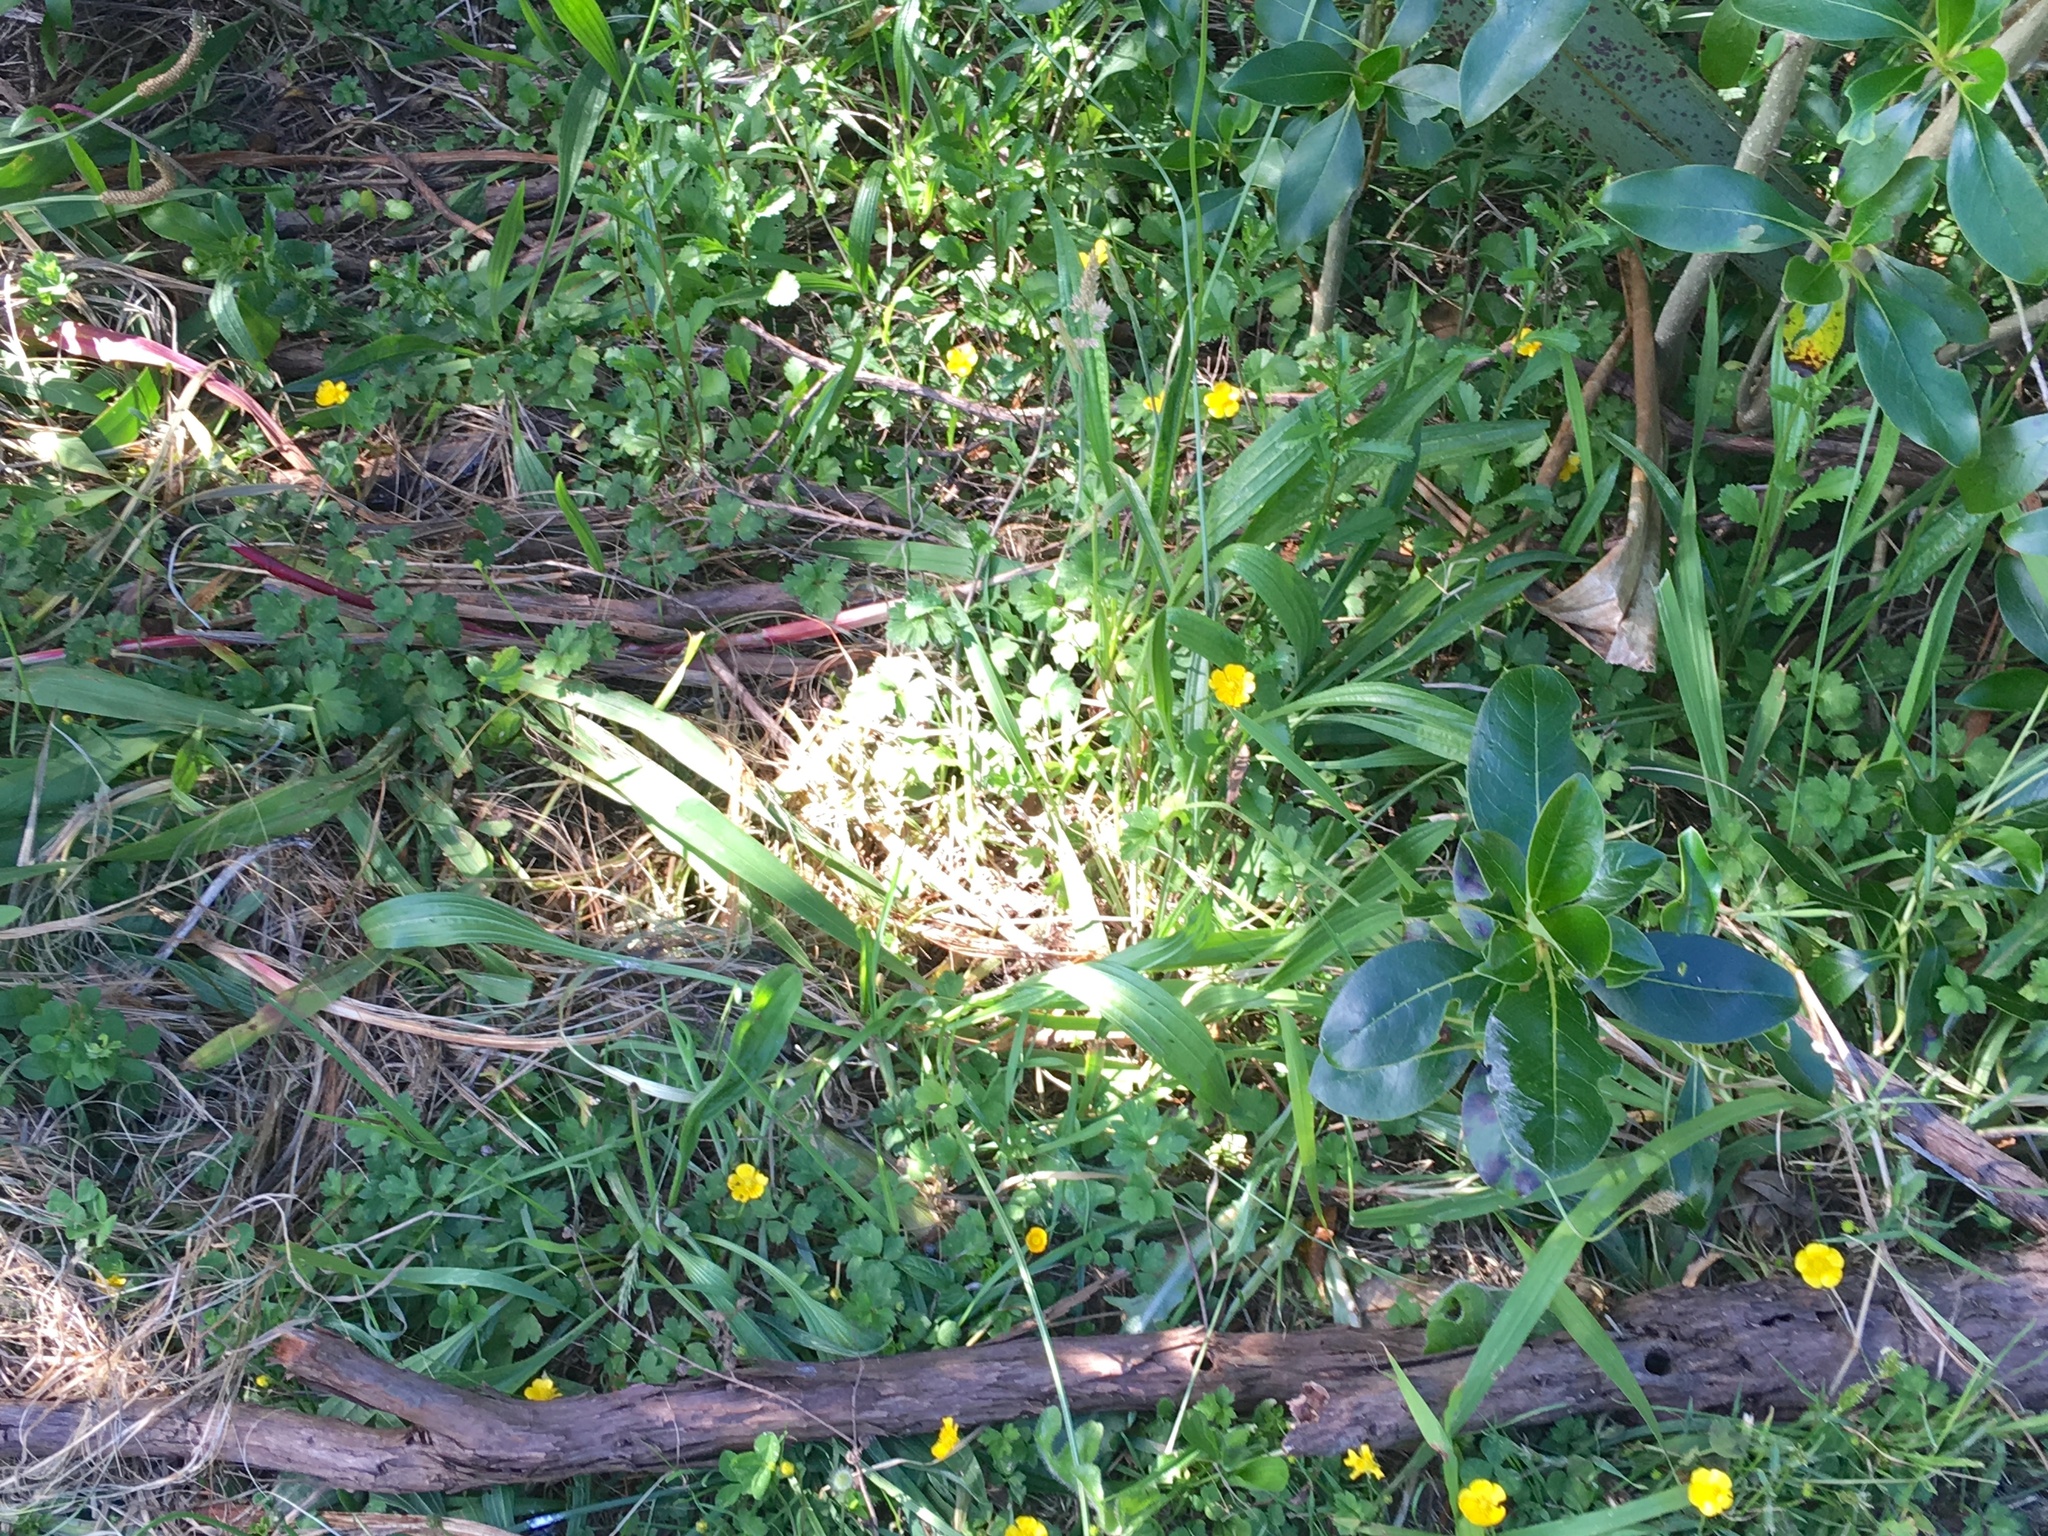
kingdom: Plantae
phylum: Tracheophyta
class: Magnoliopsida
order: Lamiales
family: Plantaginaceae
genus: Plantago
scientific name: Plantago lanceolata
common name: Ribwort plantain
